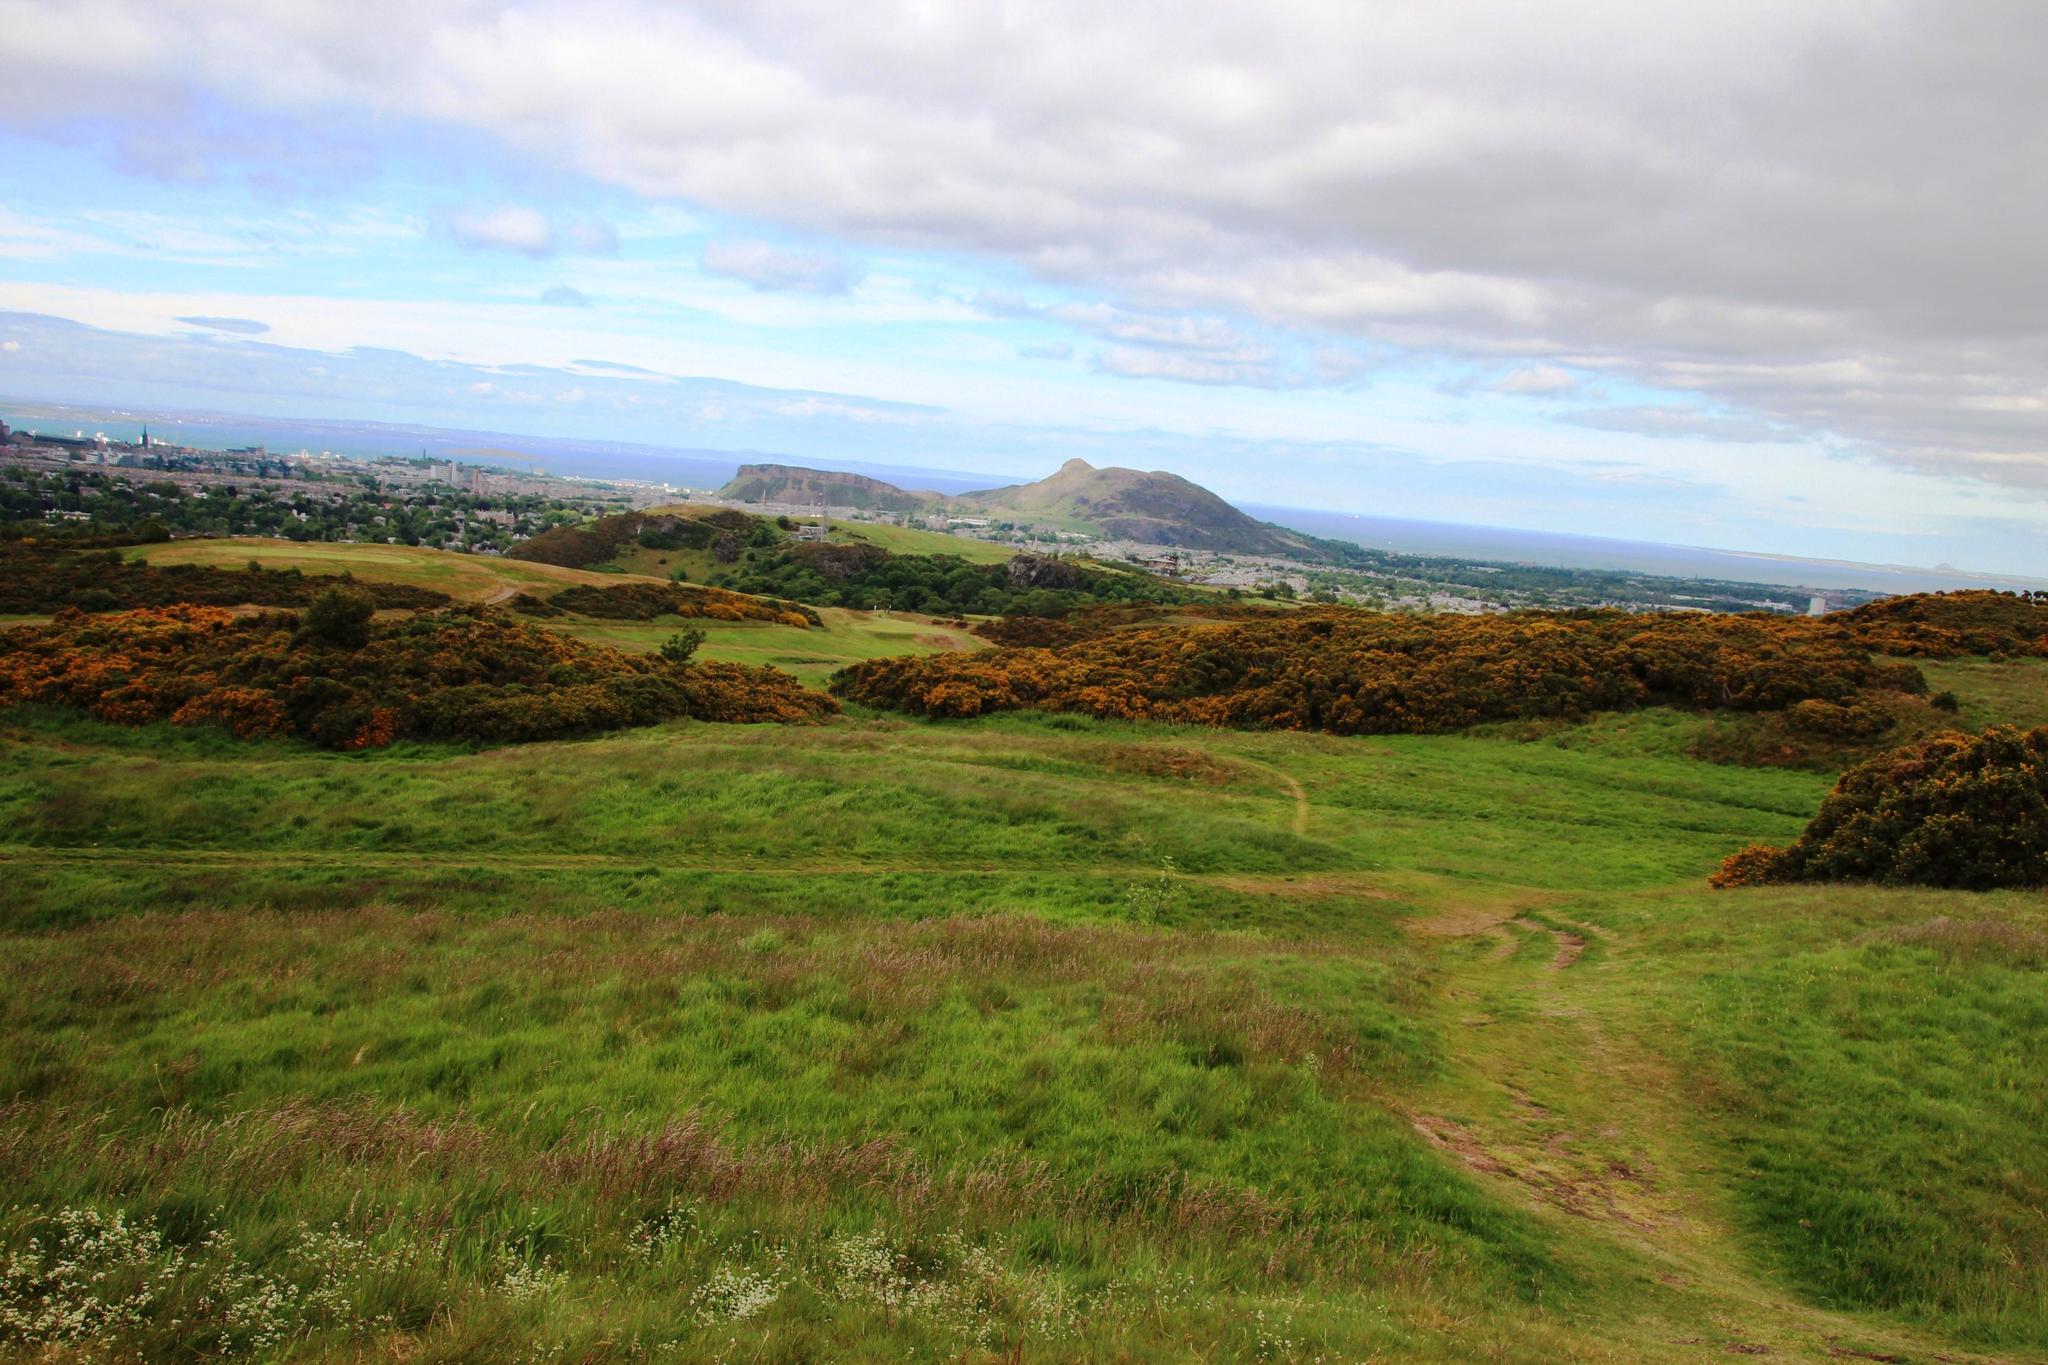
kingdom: Plantae
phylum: Tracheophyta
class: Magnoliopsida
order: Fabales
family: Fabaceae
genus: Ulex
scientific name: Ulex europaeus
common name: Common gorse
